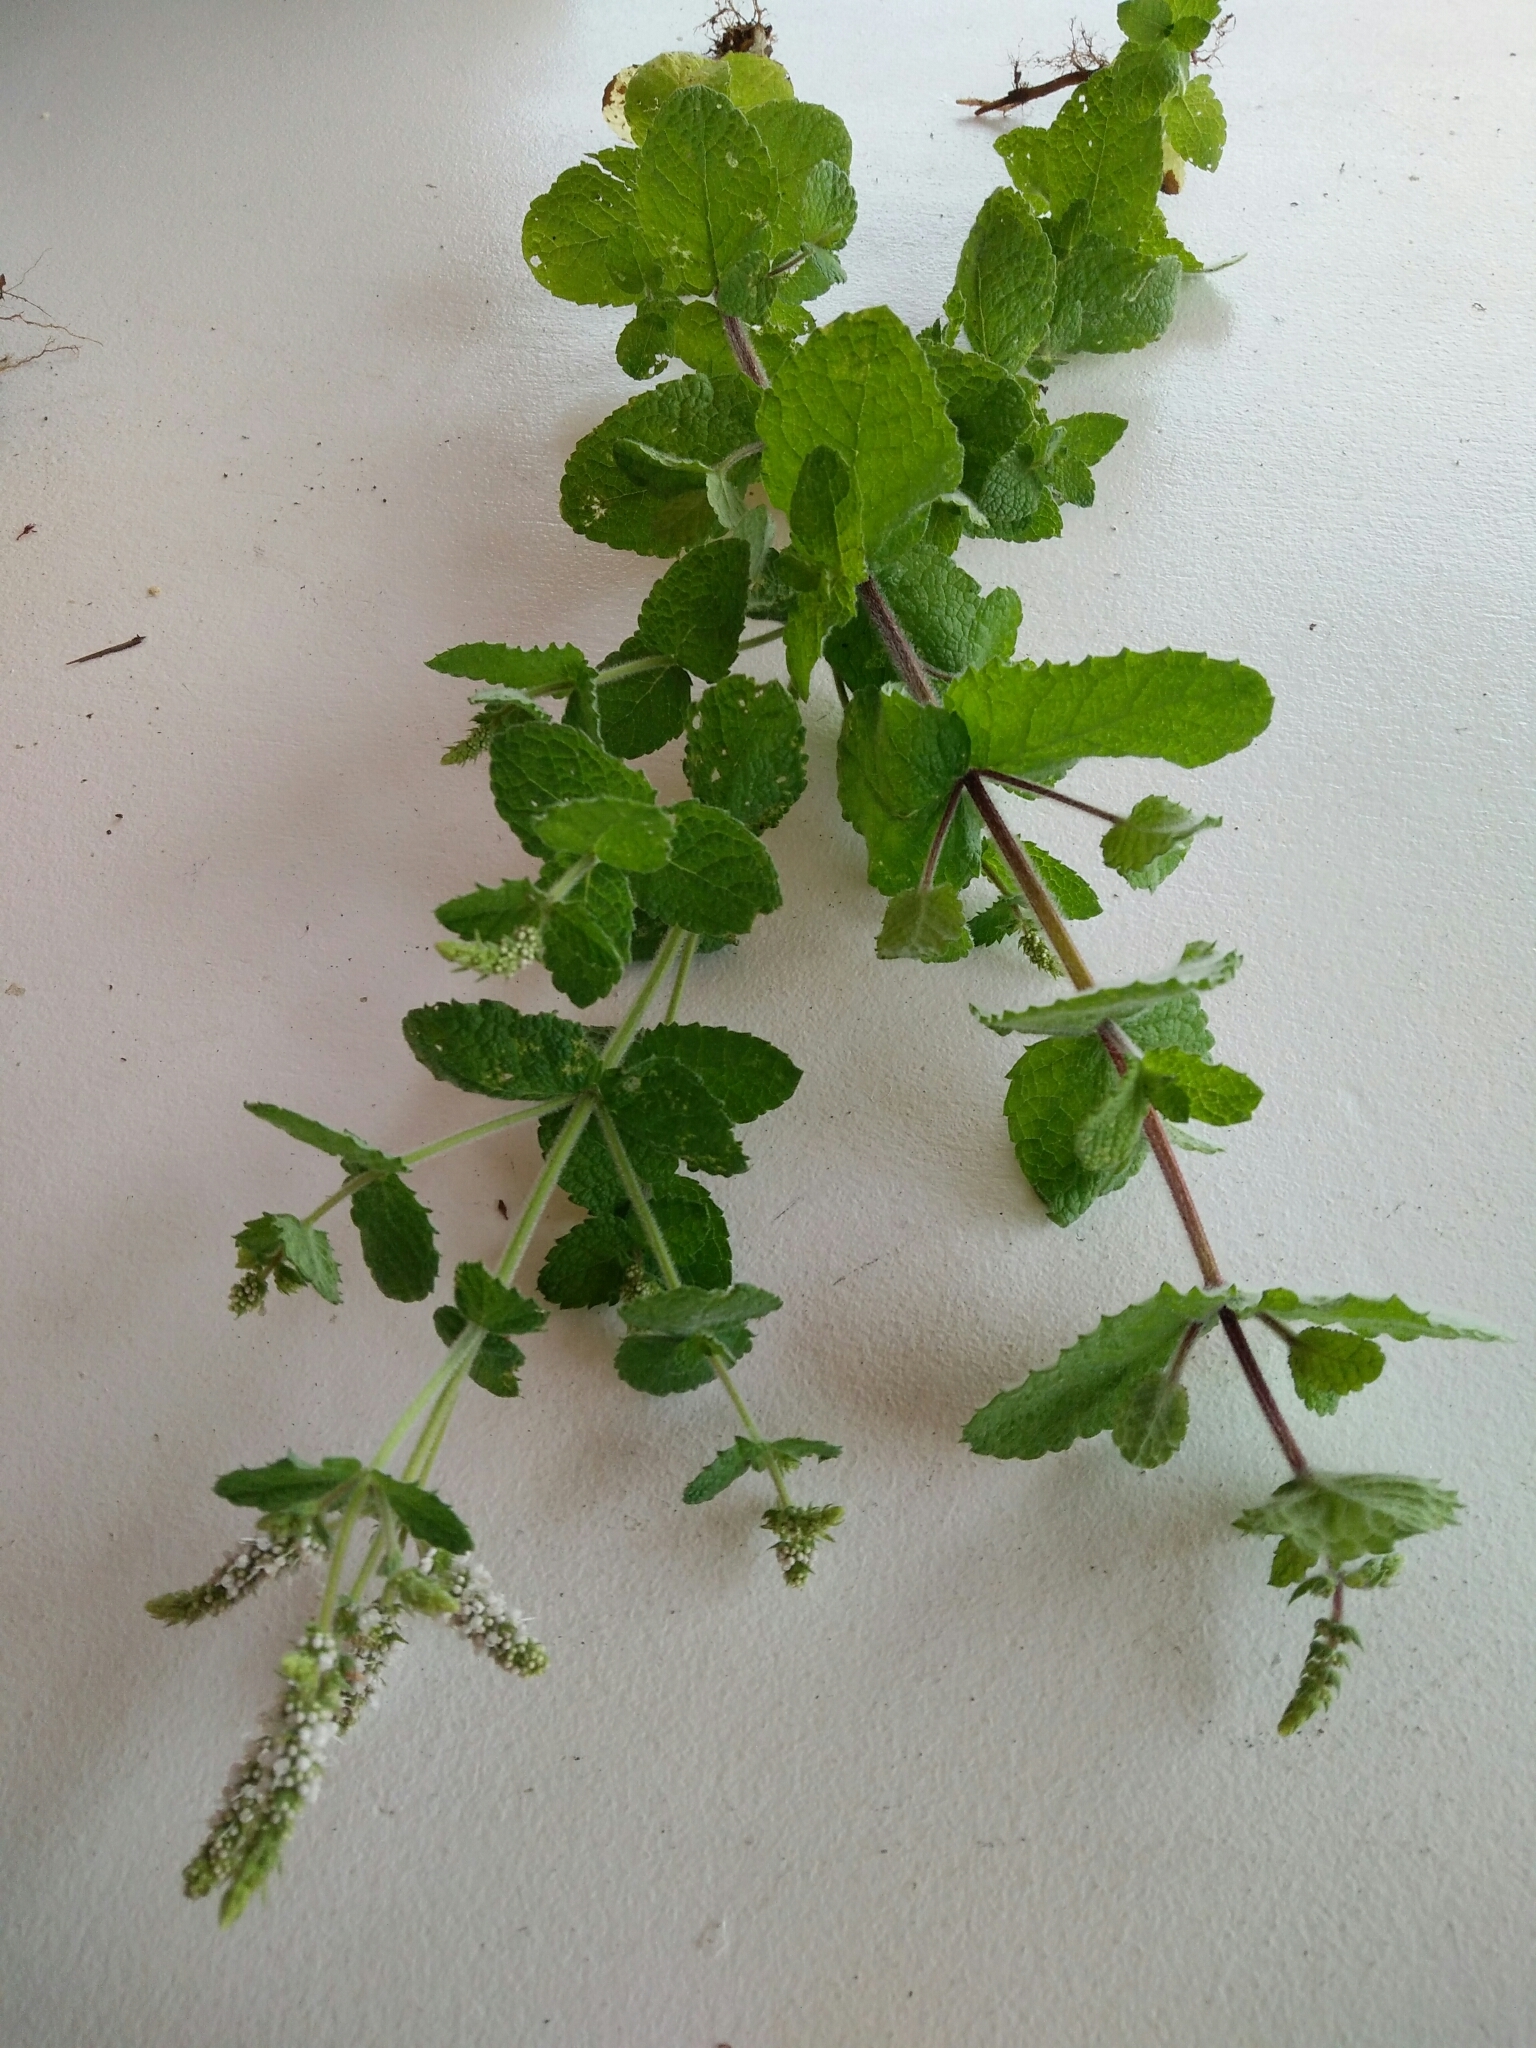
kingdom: Plantae
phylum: Tracheophyta
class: Magnoliopsida
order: Lamiales
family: Lamiaceae
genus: Mentha
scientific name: Mentha spicata
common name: Spearmint
